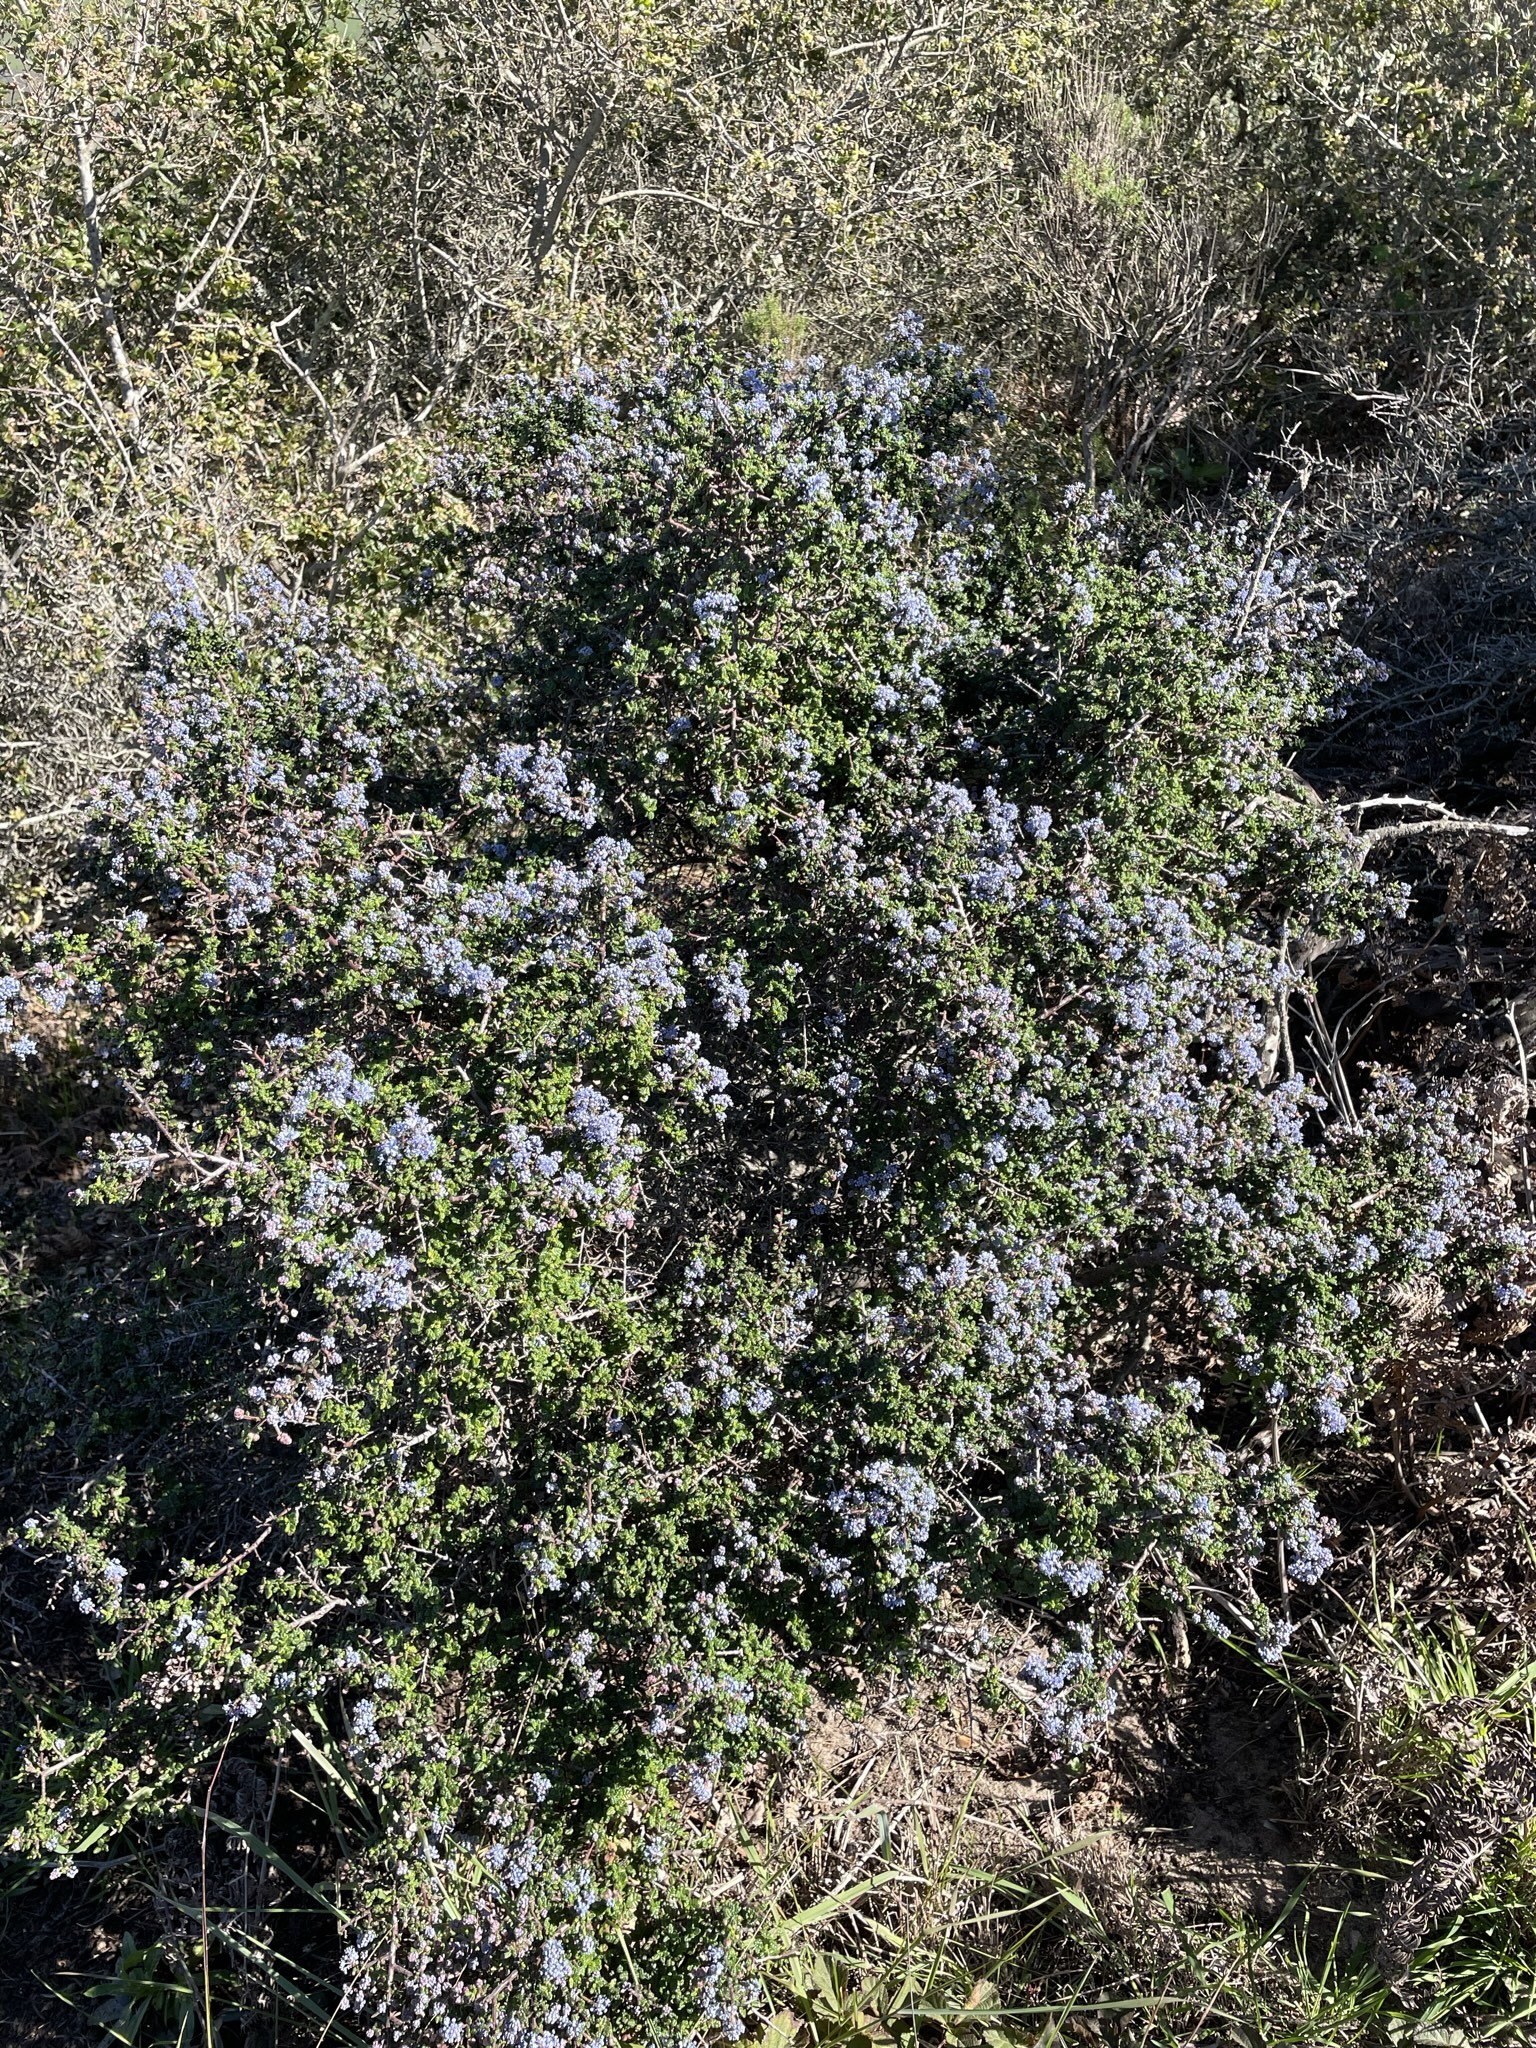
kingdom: Plantae
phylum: Tracheophyta
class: Magnoliopsida
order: Rosales
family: Rhamnaceae
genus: Ceanothus
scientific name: Ceanothus impressus
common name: Santa barbara ceanothus
